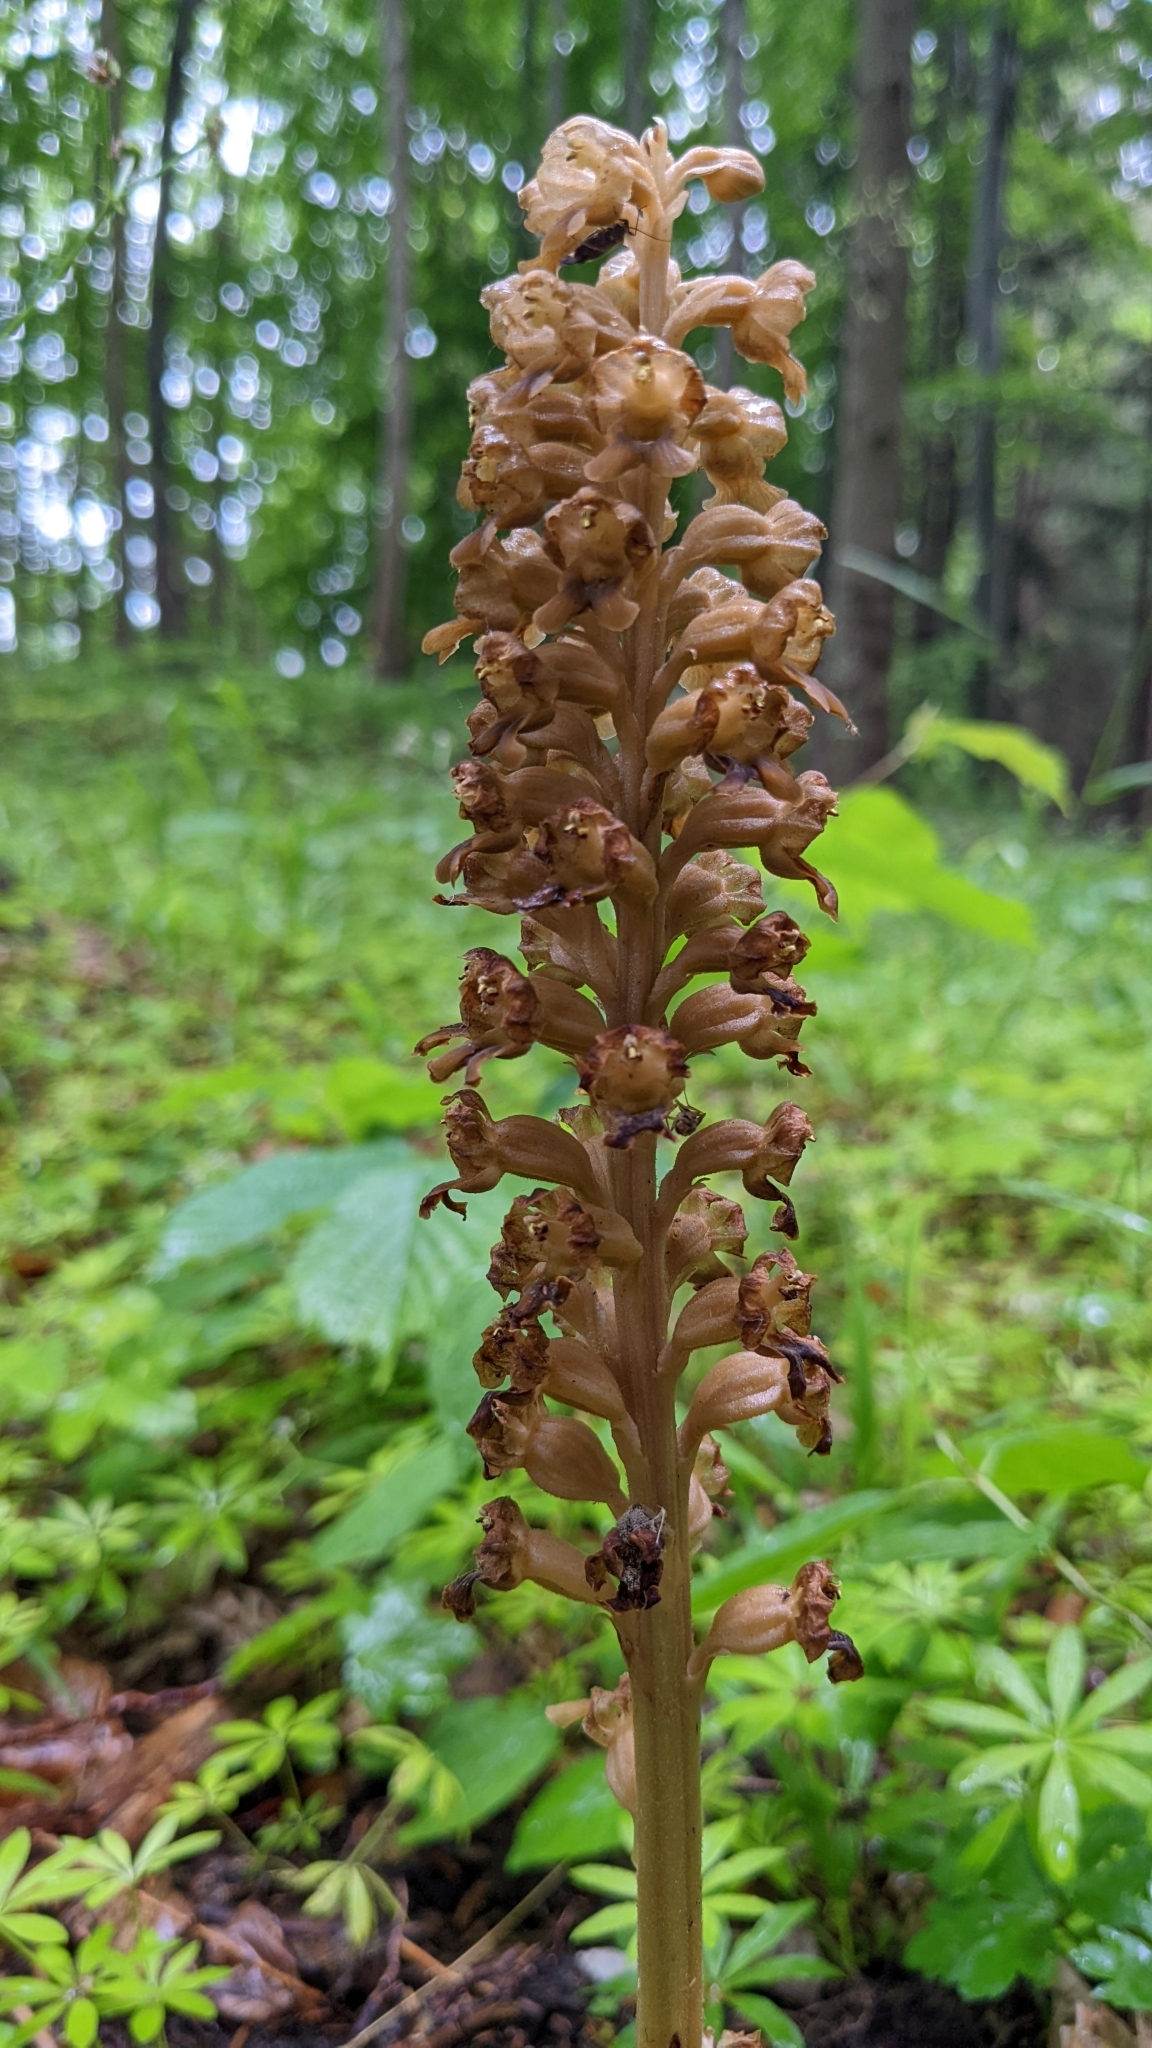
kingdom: Plantae
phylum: Tracheophyta
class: Liliopsida
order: Asparagales
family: Orchidaceae
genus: Neottia
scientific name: Neottia nidus-avis
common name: Bird's-nest orchid
